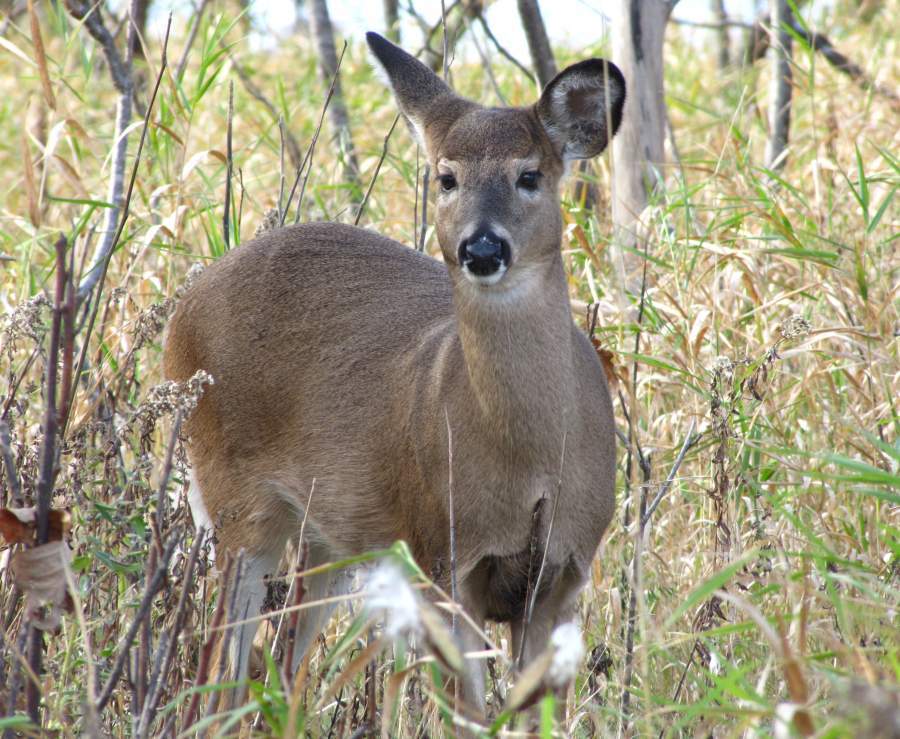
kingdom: Animalia
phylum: Chordata
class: Mammalia
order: Artiodactyla
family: Cervidae
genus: Odocoileus
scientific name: Odocoileus virginianus
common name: White-tailed deer
